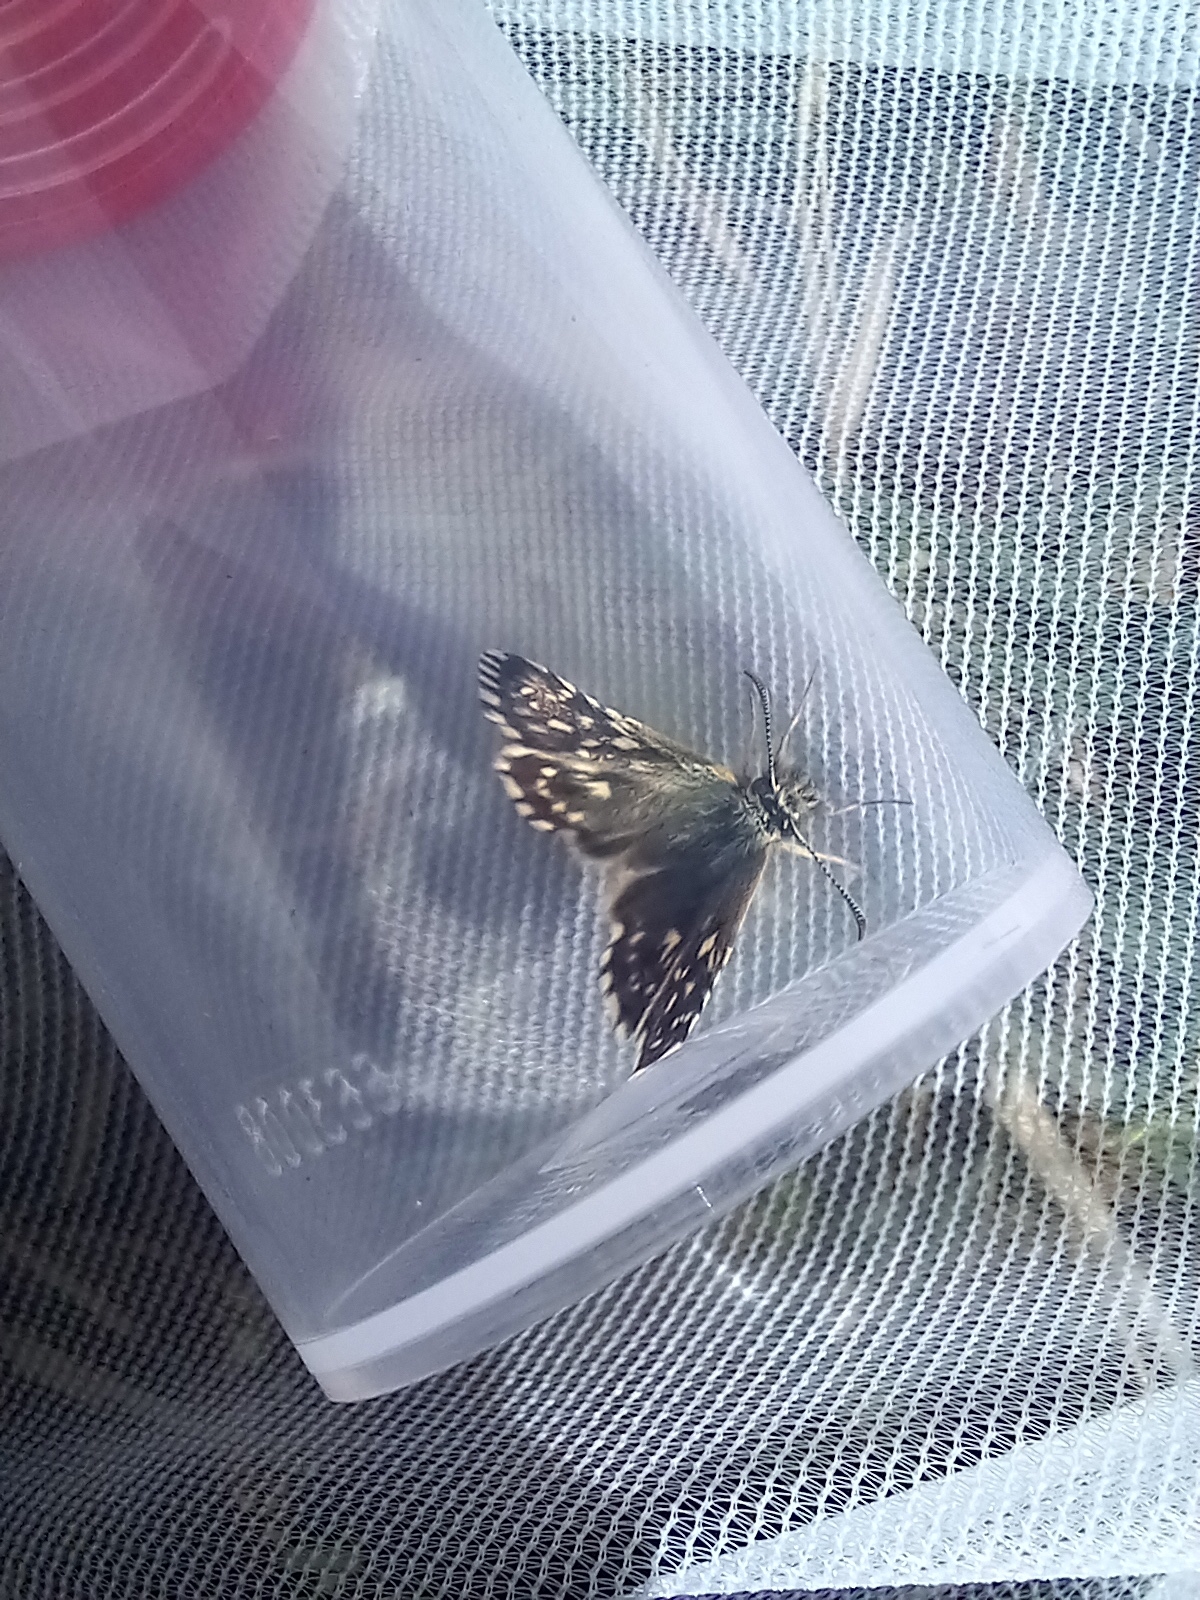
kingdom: Animalia
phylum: Arthropoda
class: Insecta
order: Lepidoptera
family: Hesperiidae
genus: Pyrgus
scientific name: Pyrgus malvae
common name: Grizzled skipper
